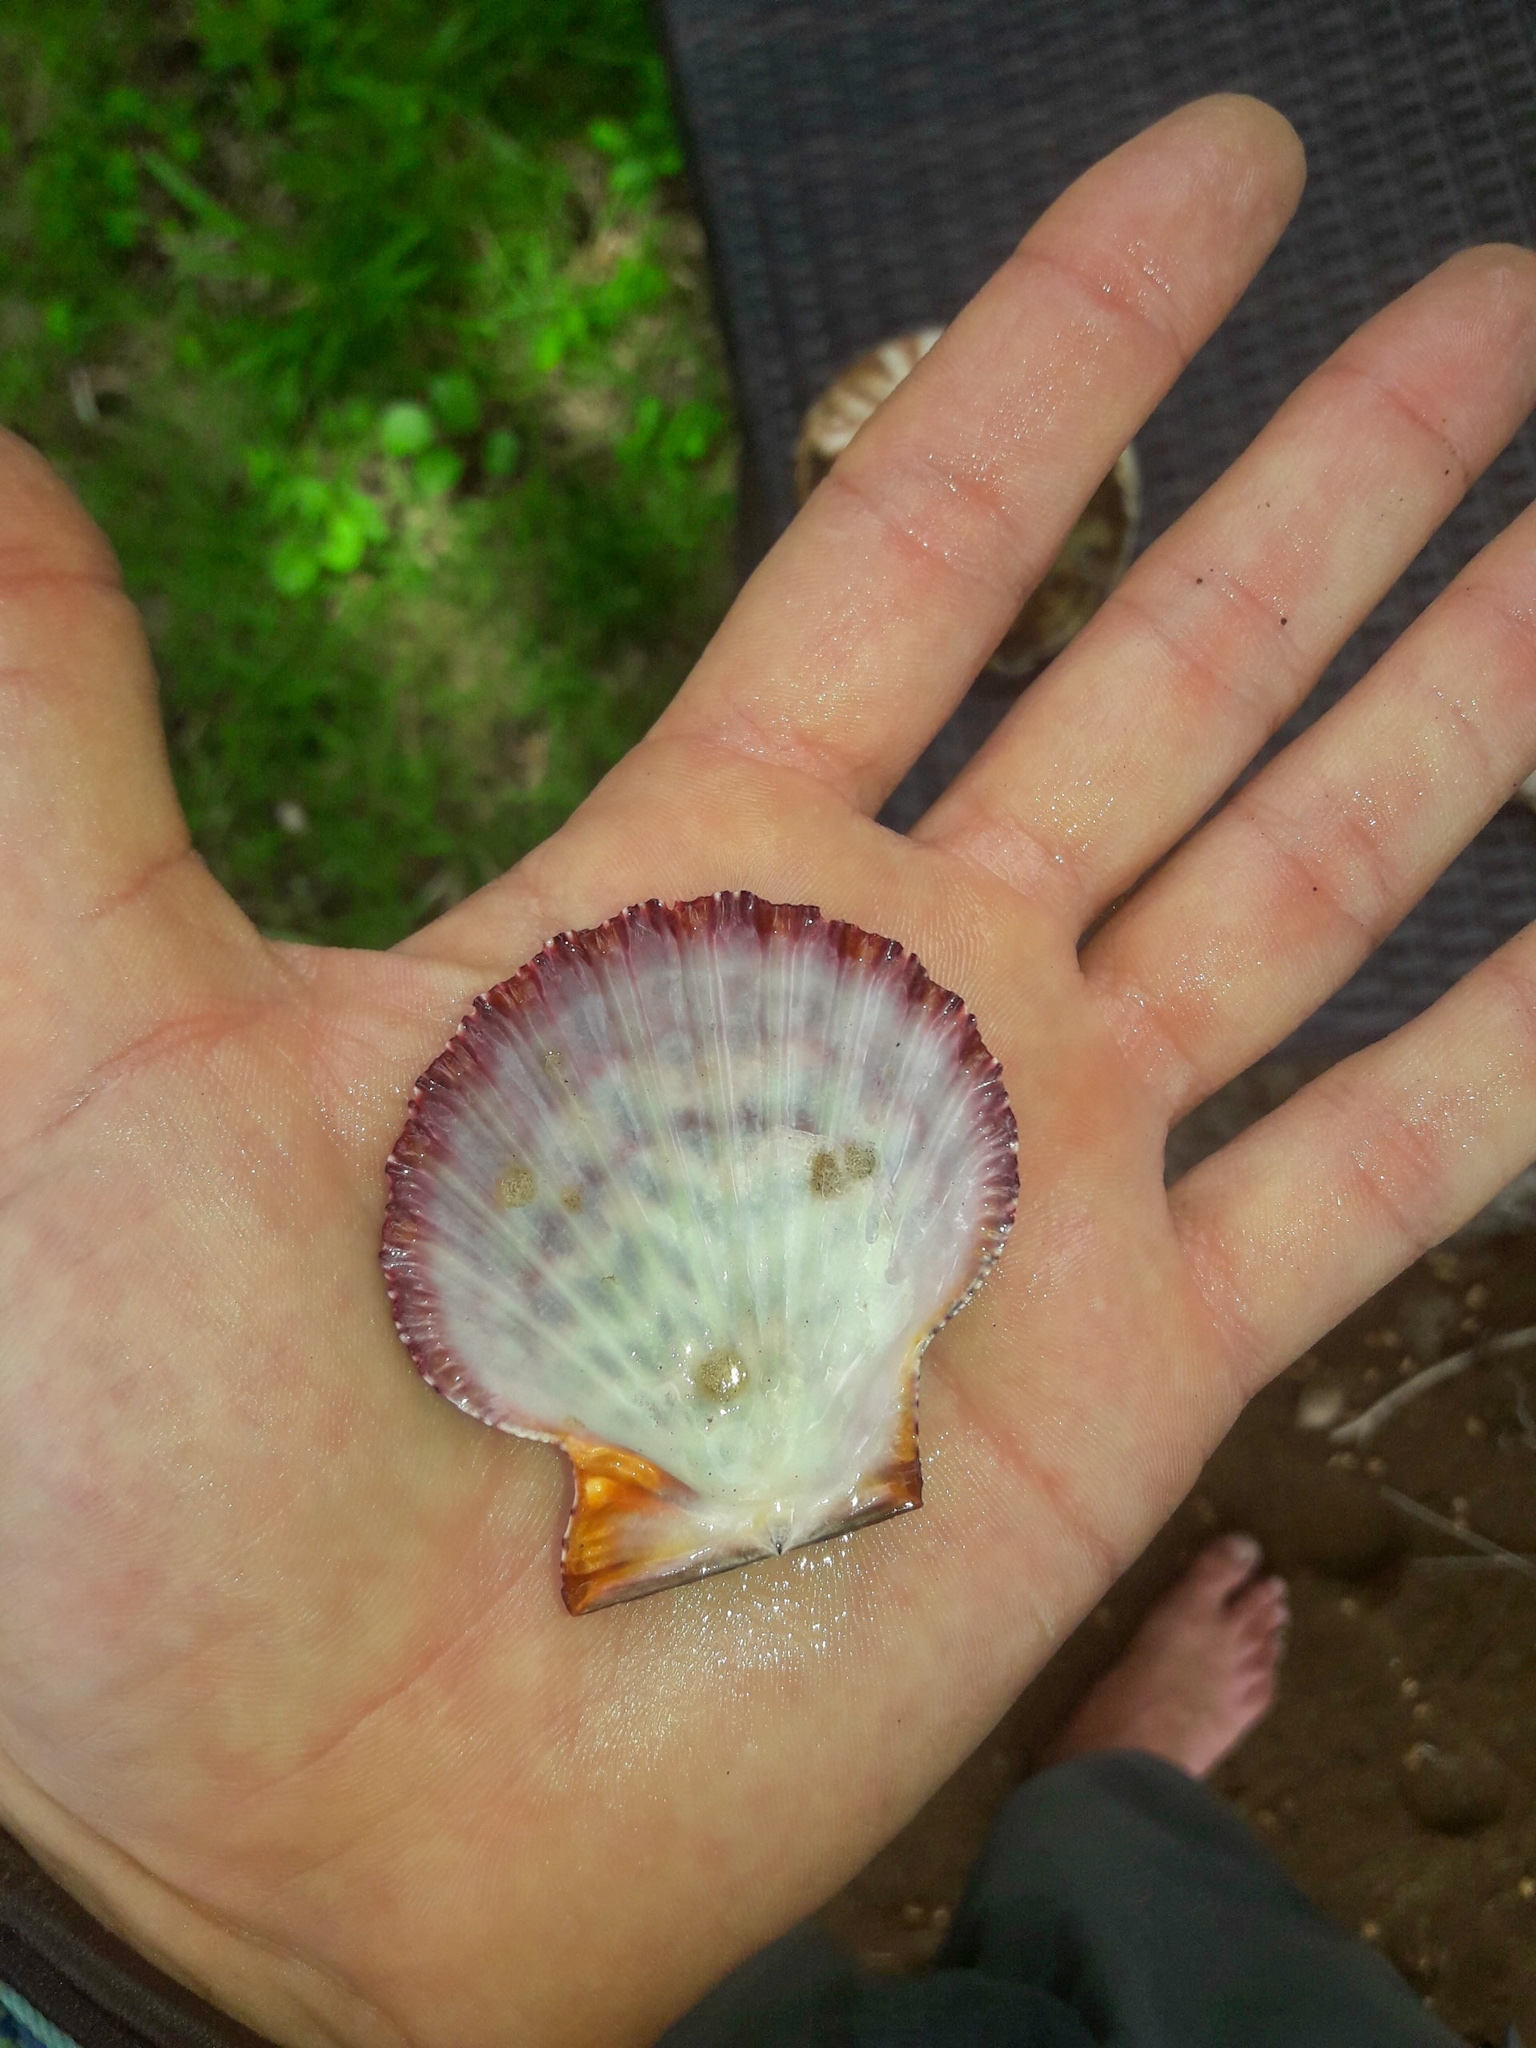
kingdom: Animalia
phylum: Mollusca
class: Bivalvia
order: Pectinida
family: Pectinidae
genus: Gloripallium
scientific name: Gloripallium pallium
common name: Royal cloak scallop
